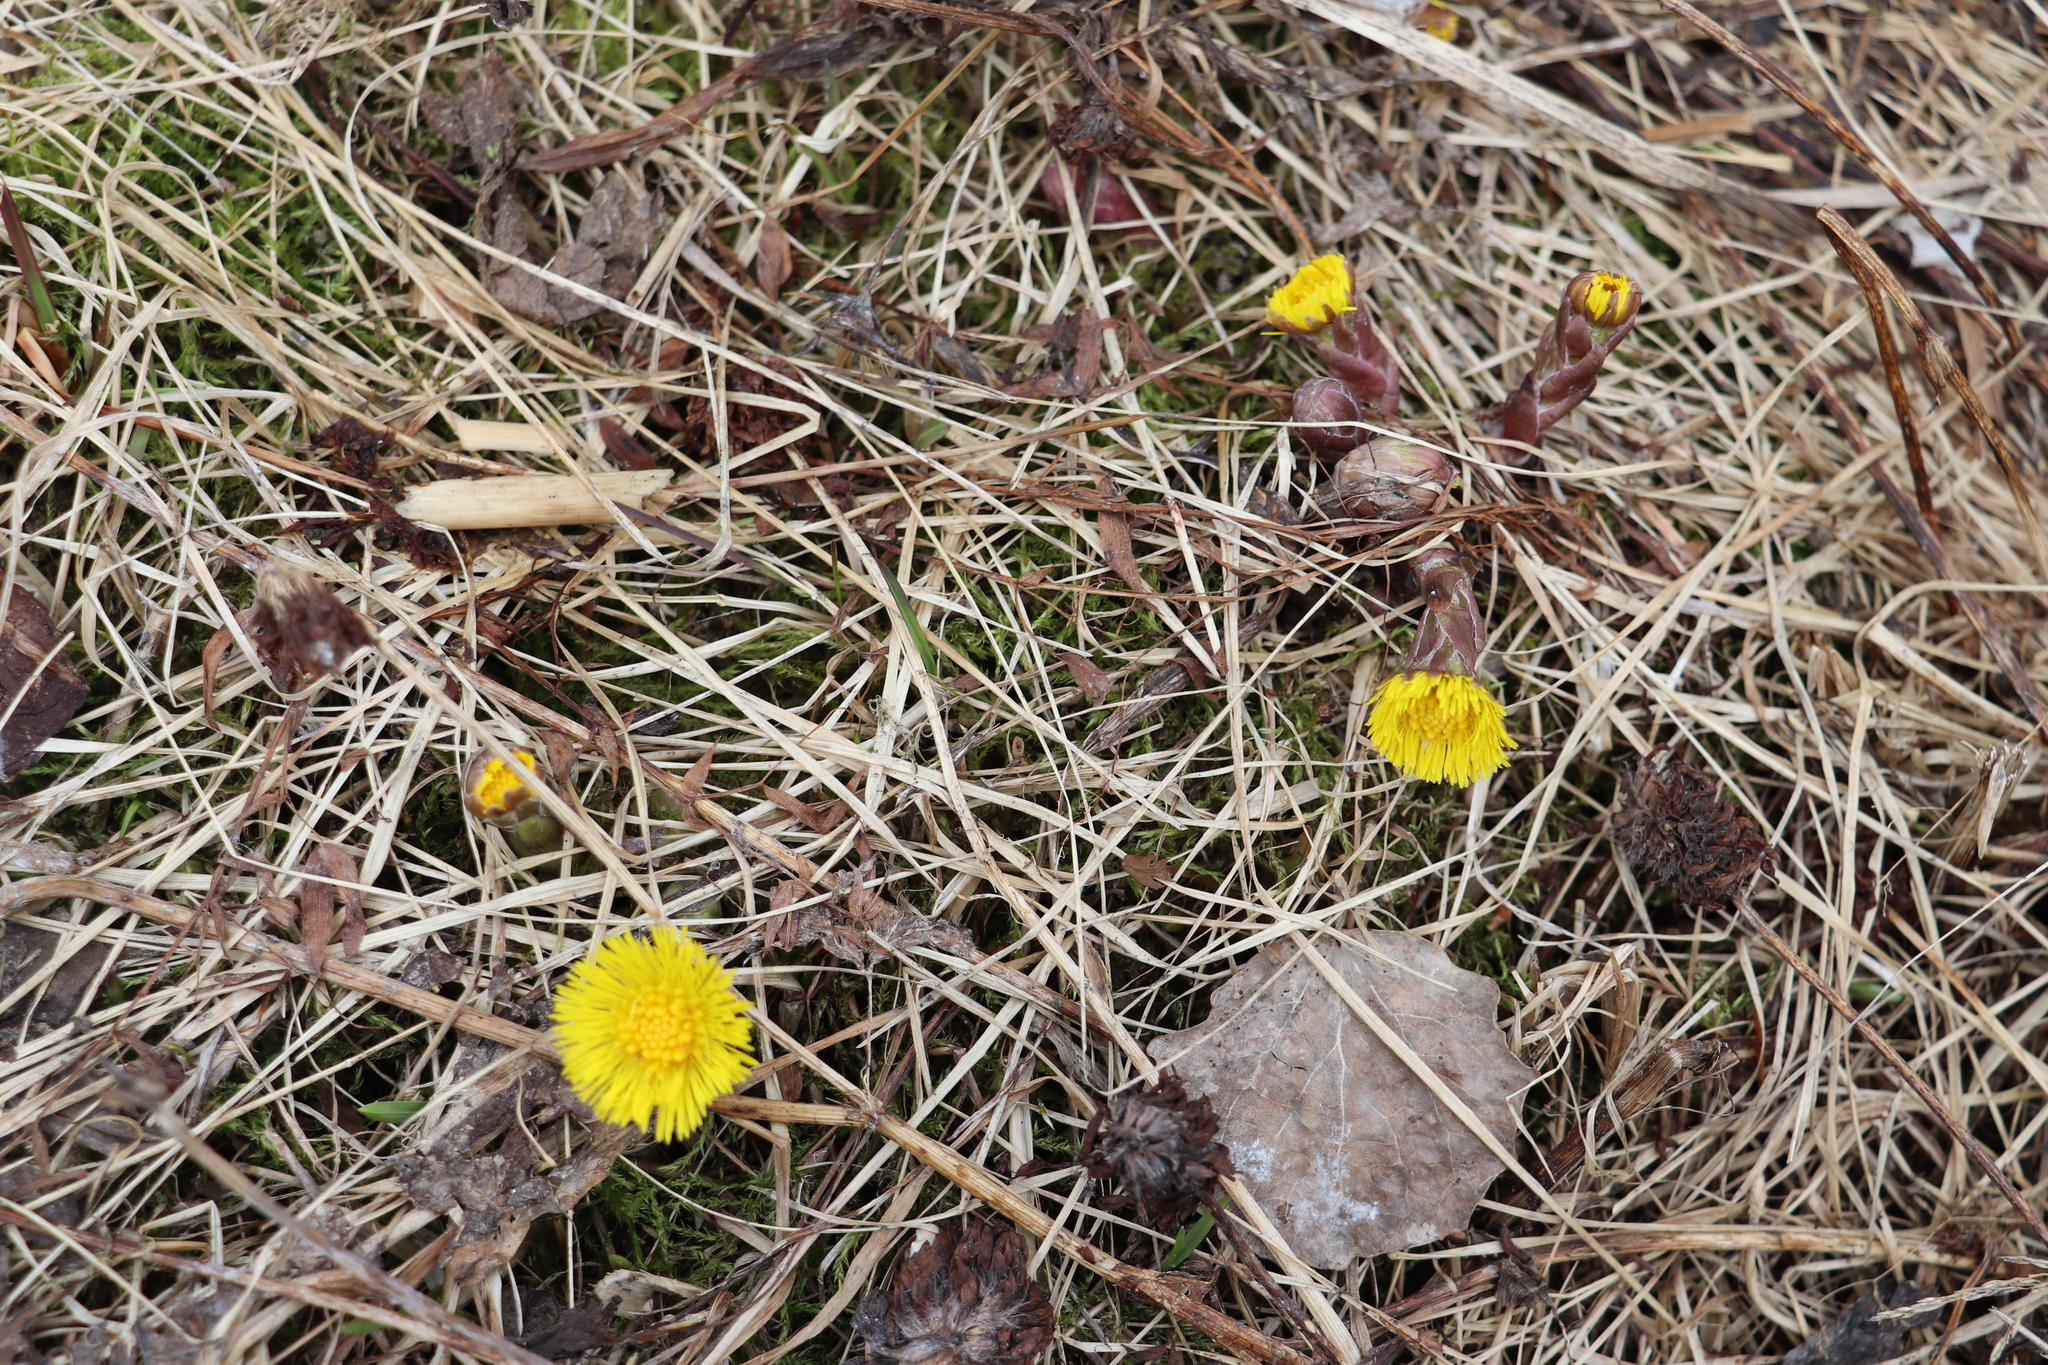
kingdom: Plantae
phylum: Tracheophyta
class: Magnoliopsida
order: Asterales
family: Asteraceae
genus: Tussilago
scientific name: Tussilago farfara
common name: Coltsfoot
